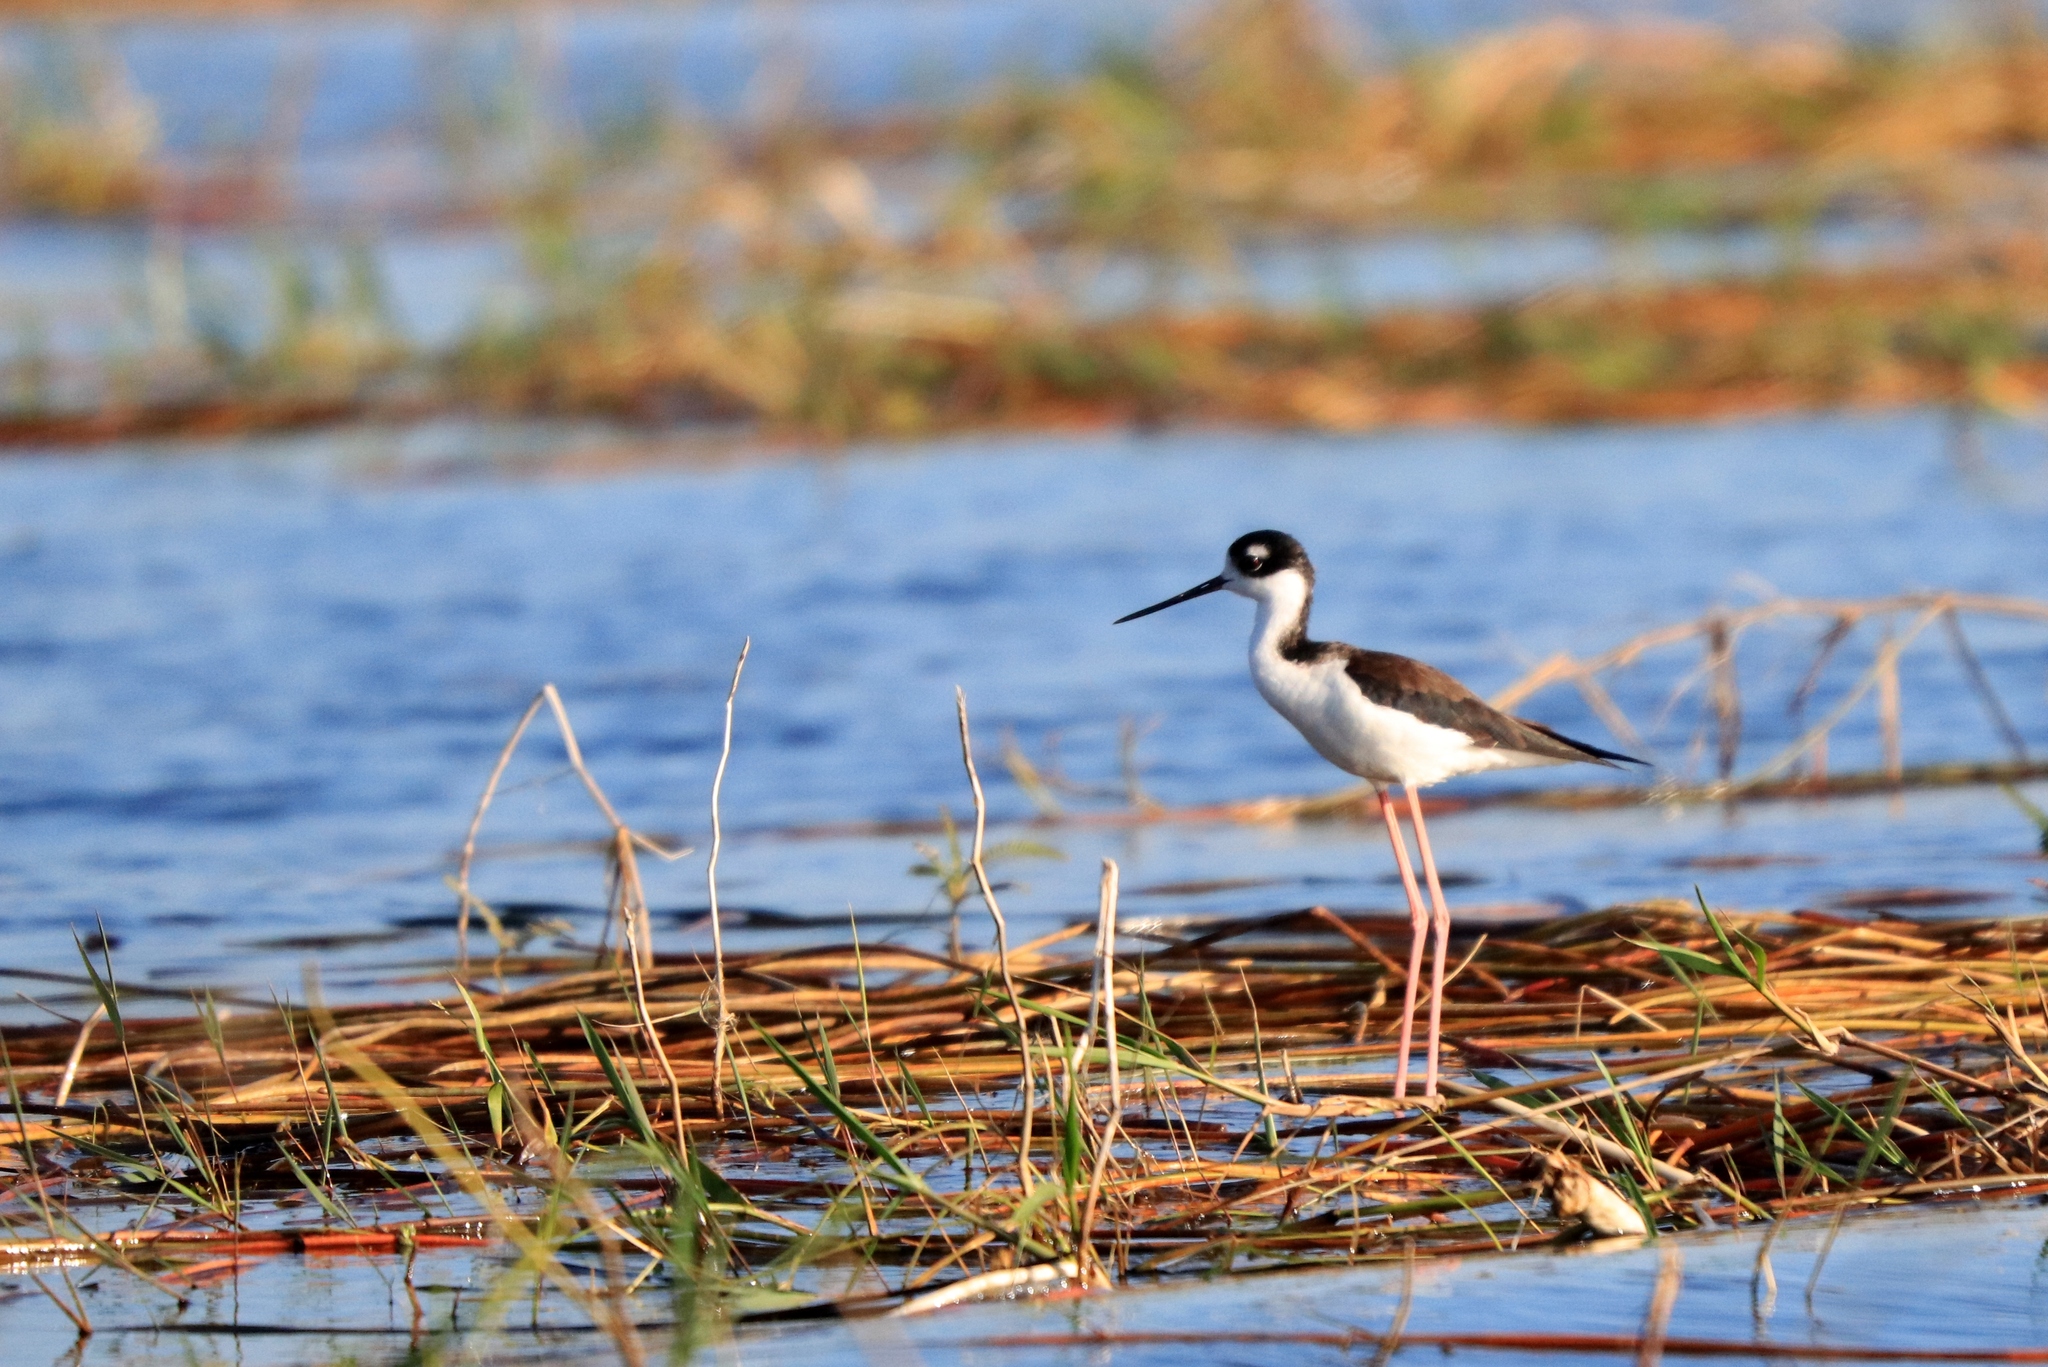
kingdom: Animalia
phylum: Chordata
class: Aves
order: Charadriiformes
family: Recurvirostridae
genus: Himantopus
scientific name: Himantopus mexicanus
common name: Black-necked stilt
